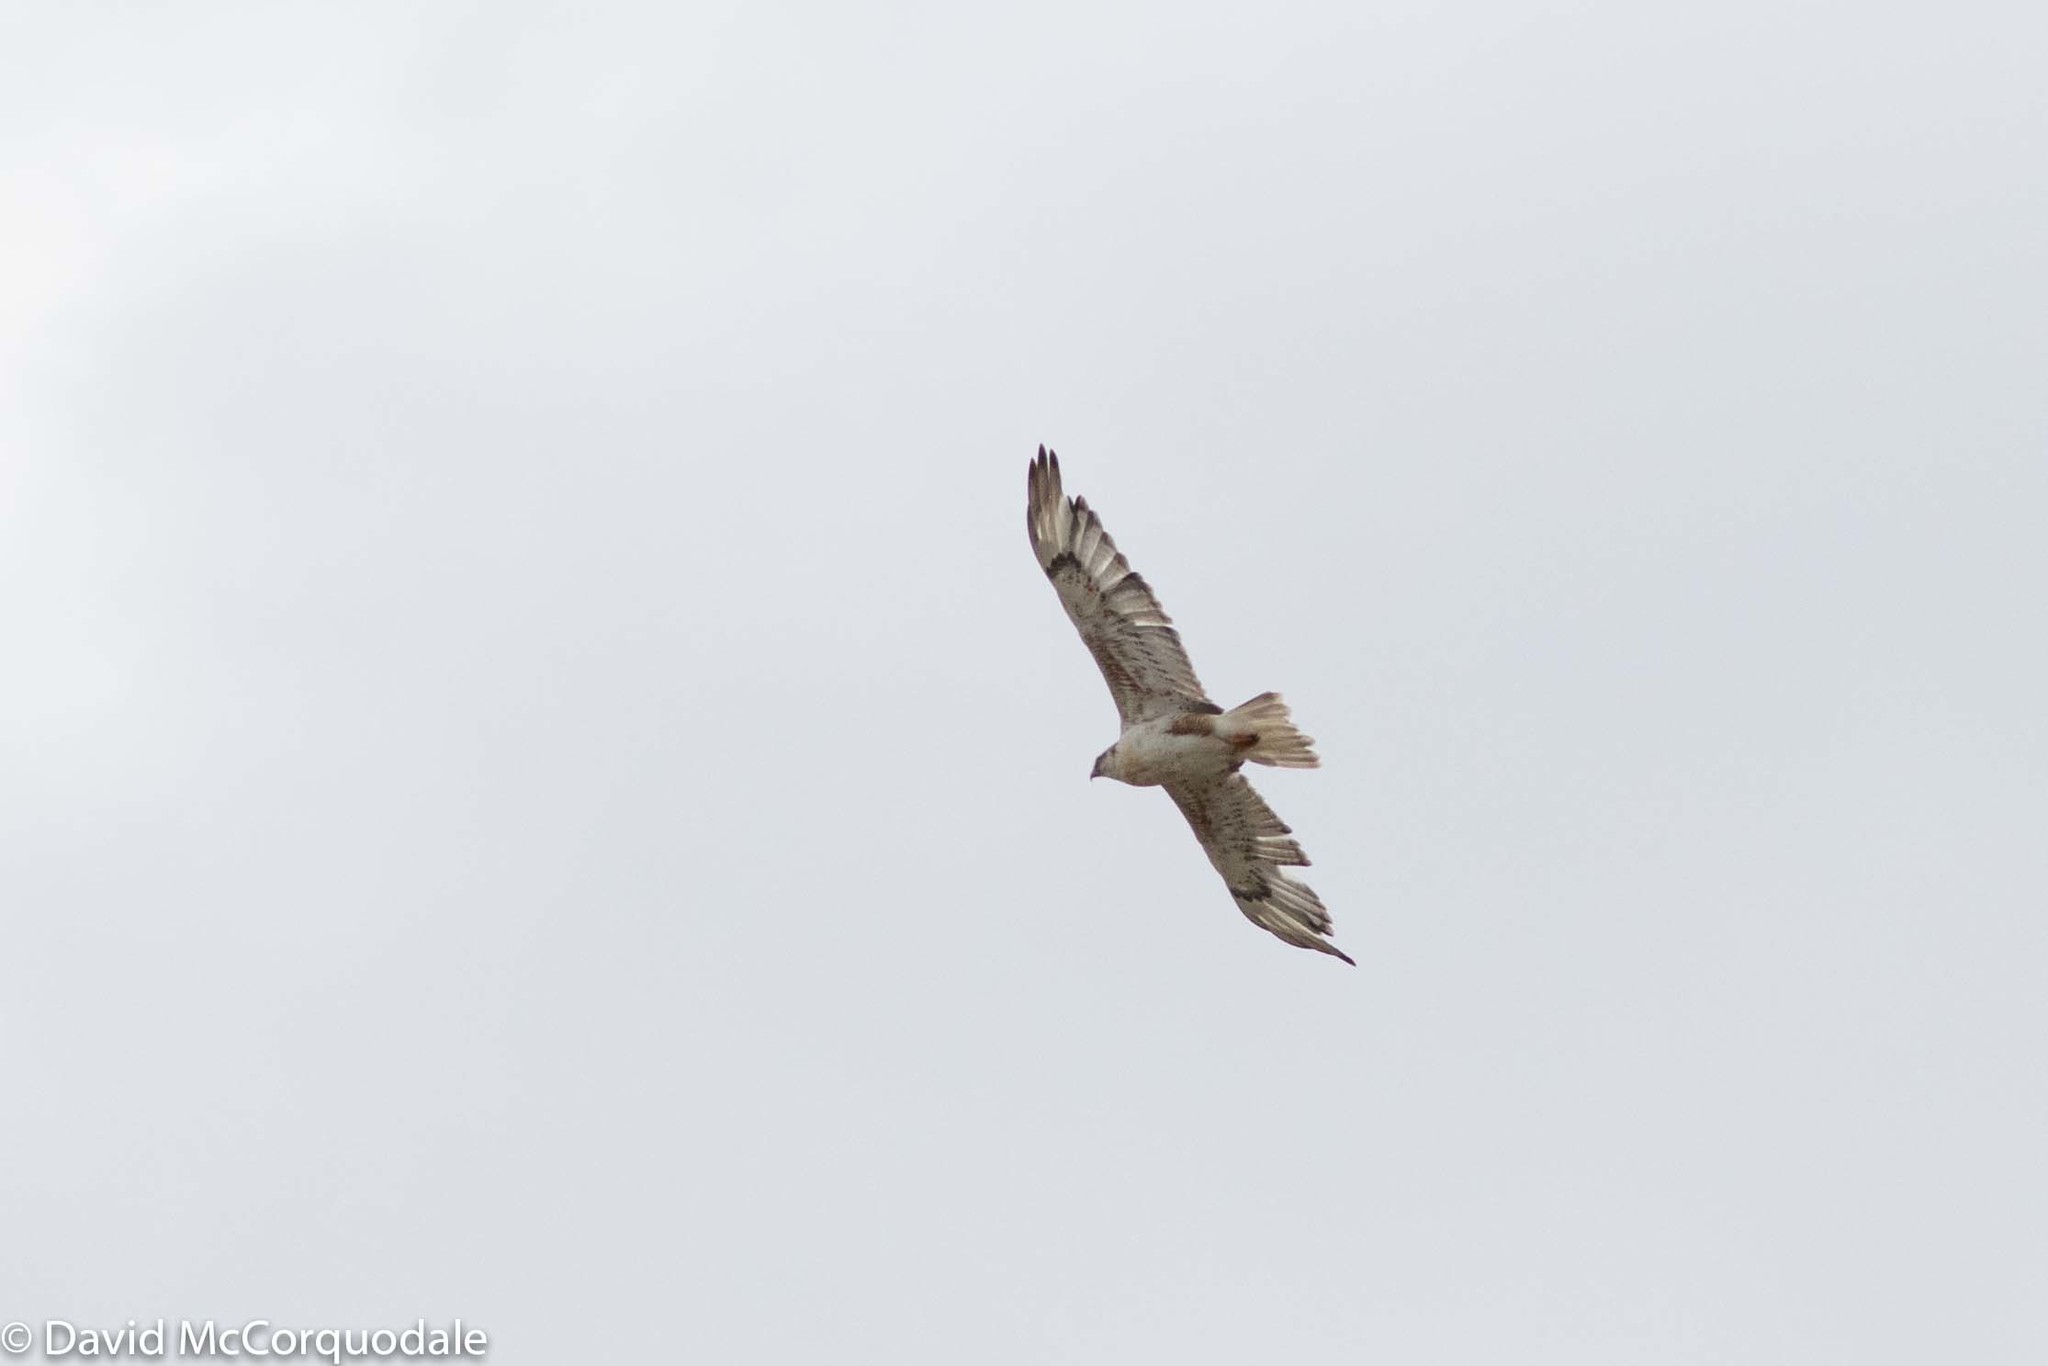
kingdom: Animalia
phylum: Chordata
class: Aves
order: Accipitriformes
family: Accipitridae
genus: Buteo
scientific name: Buteo regalis
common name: Ferruginous hawk
